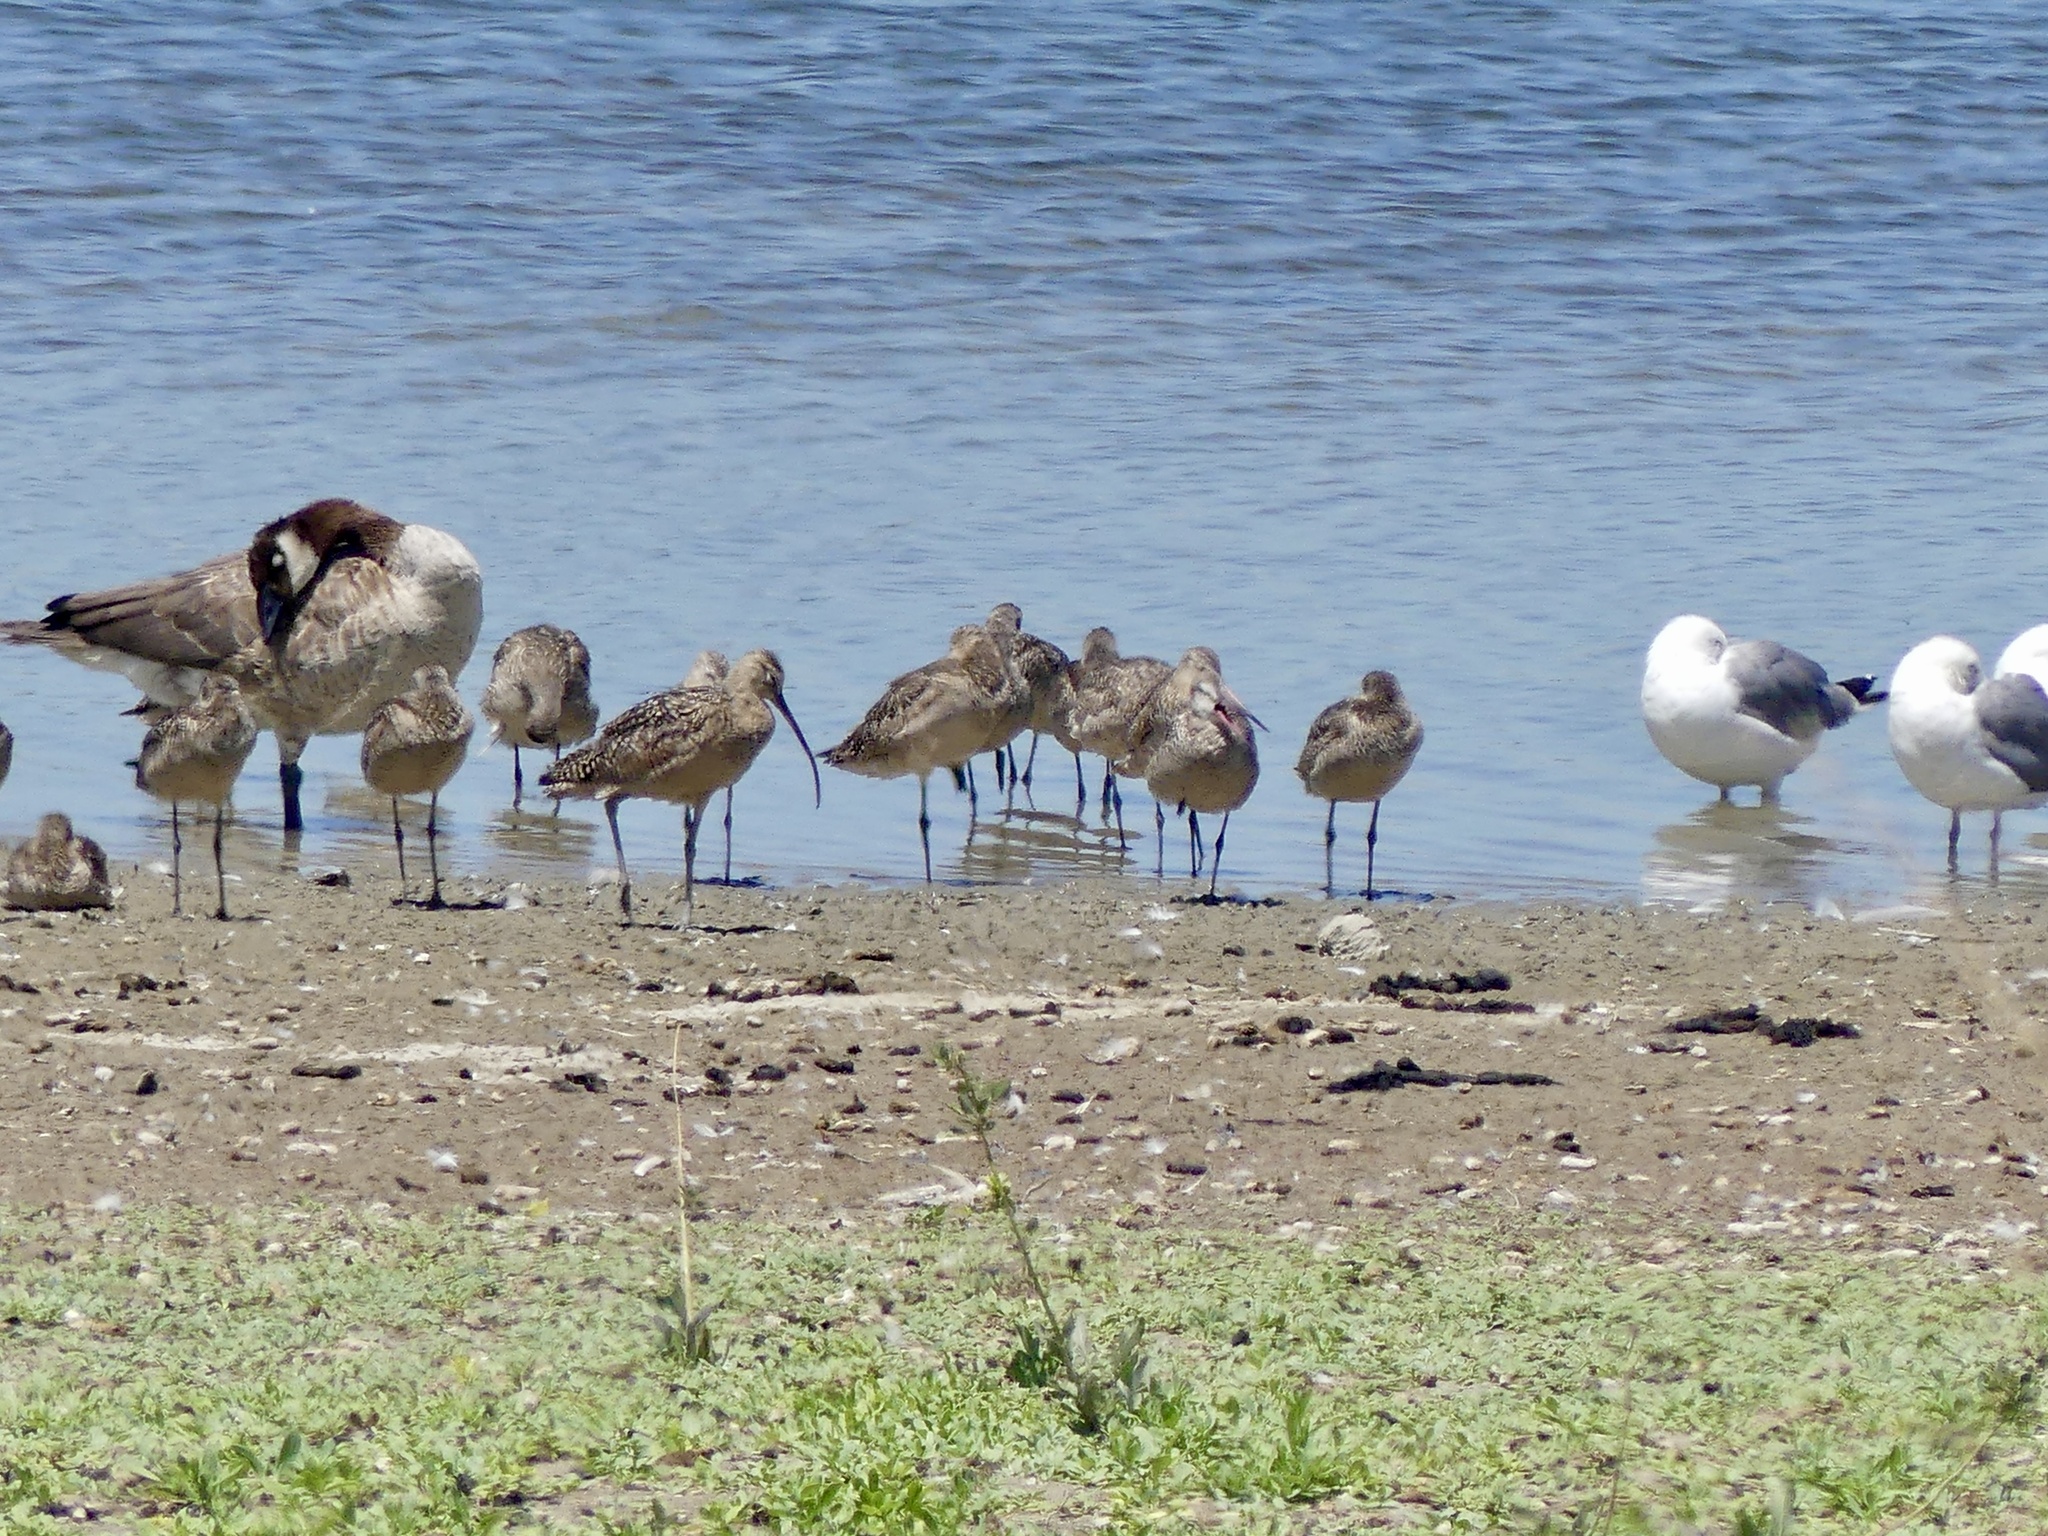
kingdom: Animalia
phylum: Chordata
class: Aves
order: Charadriiformes
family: Scolopacidae
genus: Numenius
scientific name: Numenius americanus
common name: Long-billed curlew
